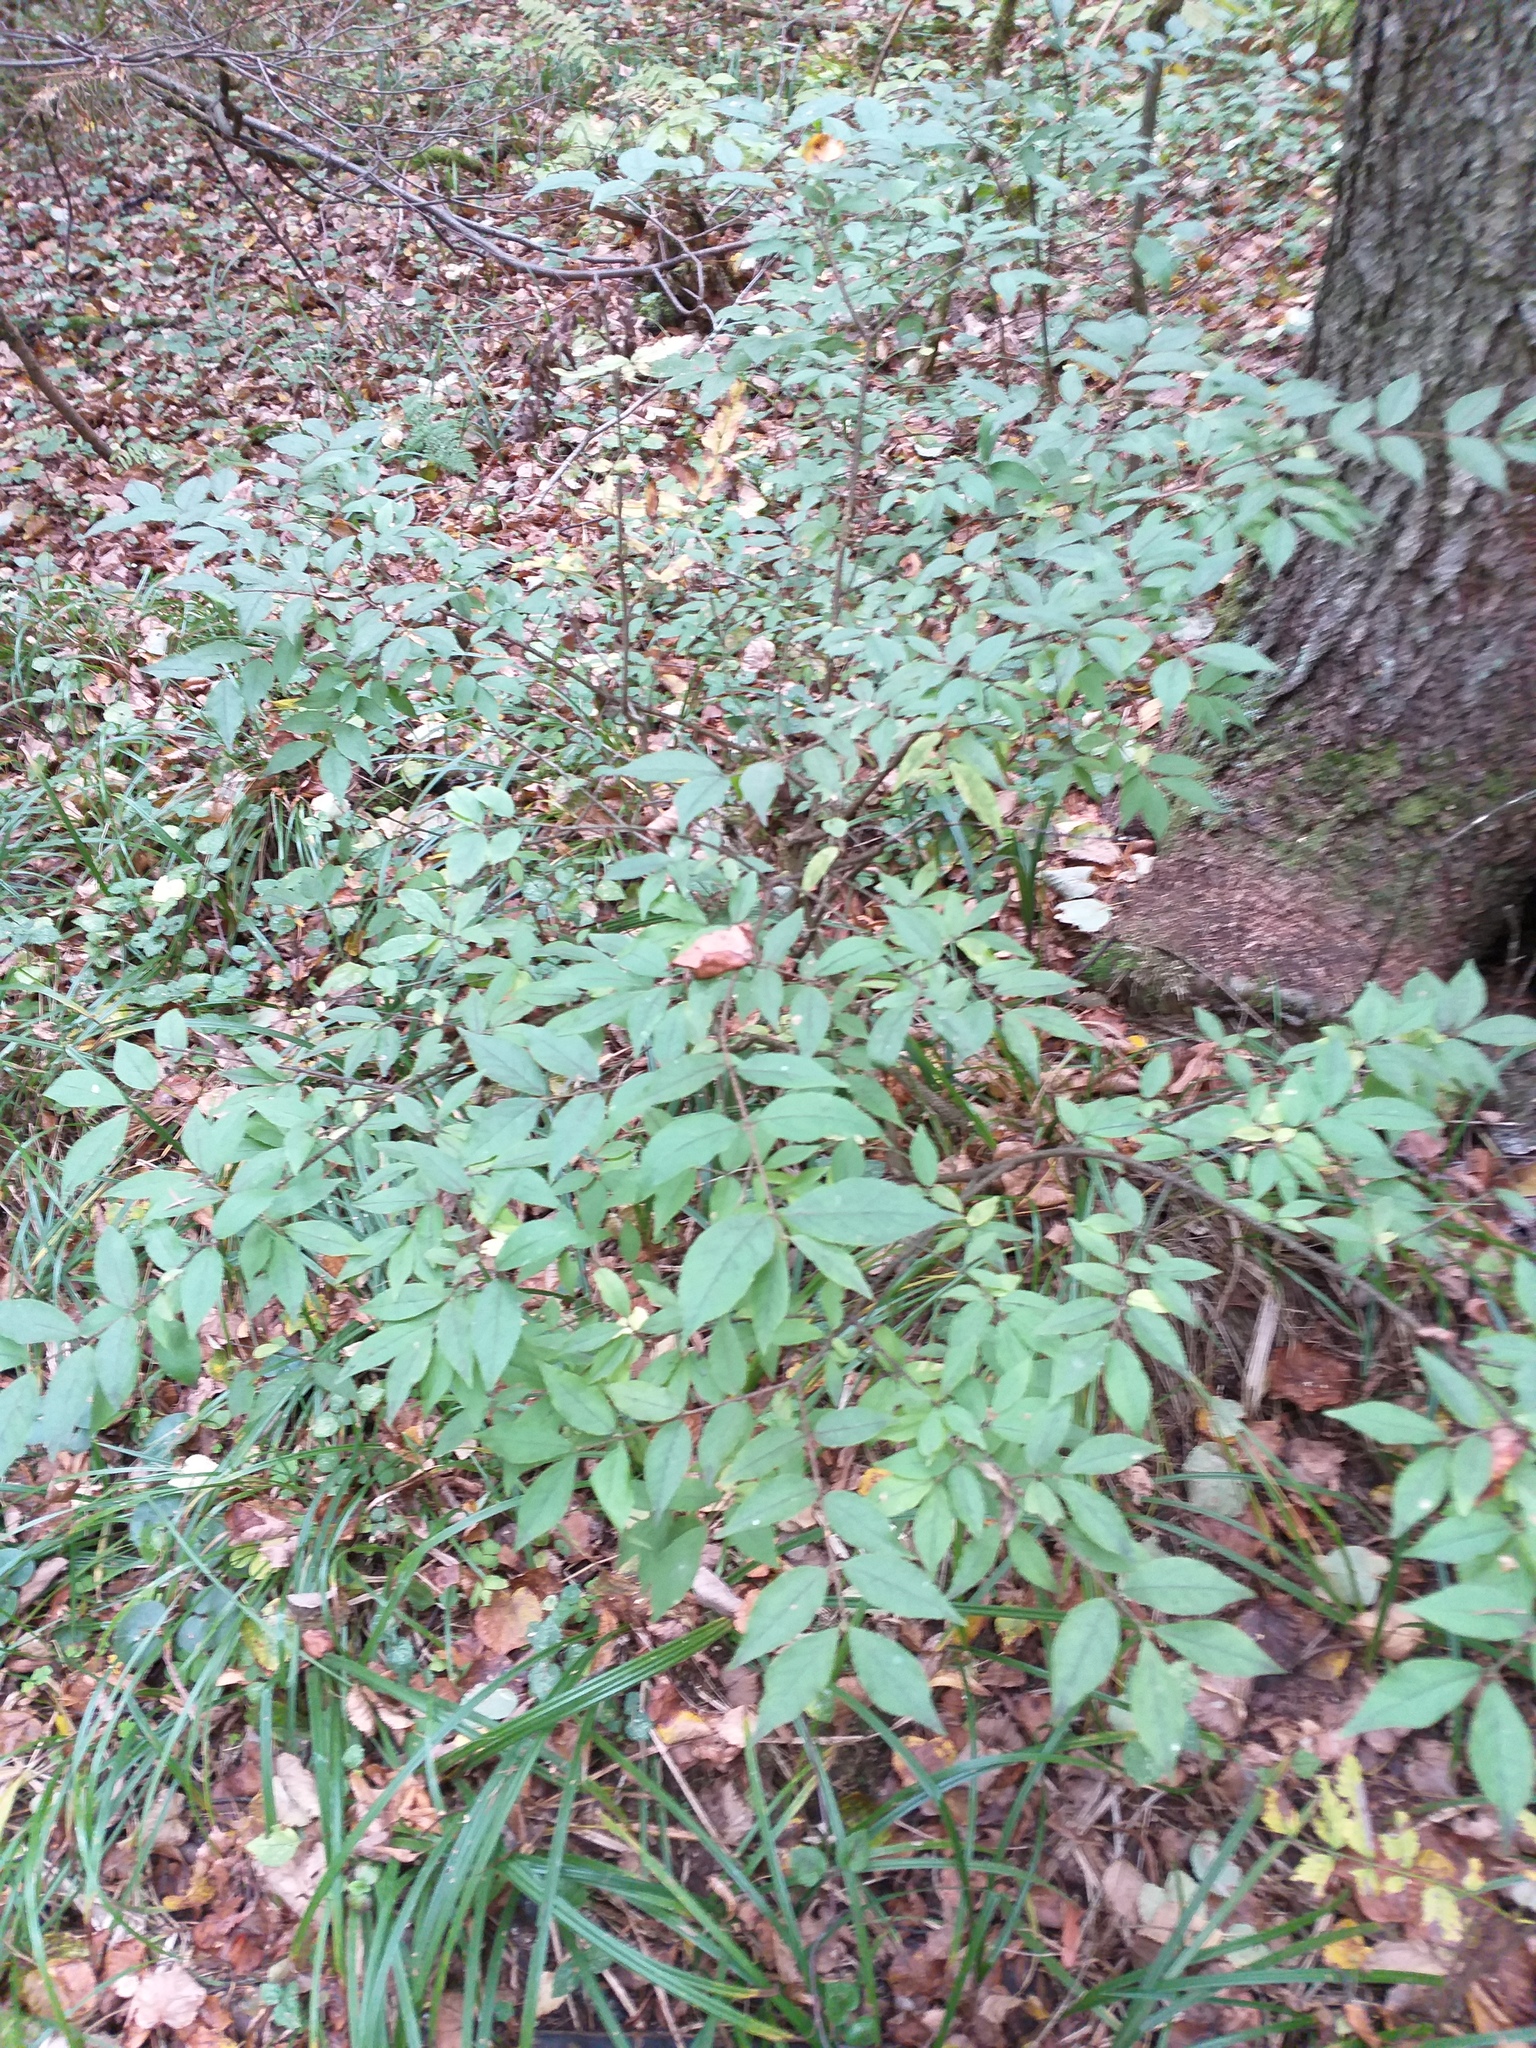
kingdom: Plantae
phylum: Tracheophyta
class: Magnoliopsida
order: Celastrales
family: Celastraceae
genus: Euonymus
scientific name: Euonymus verrucosus
